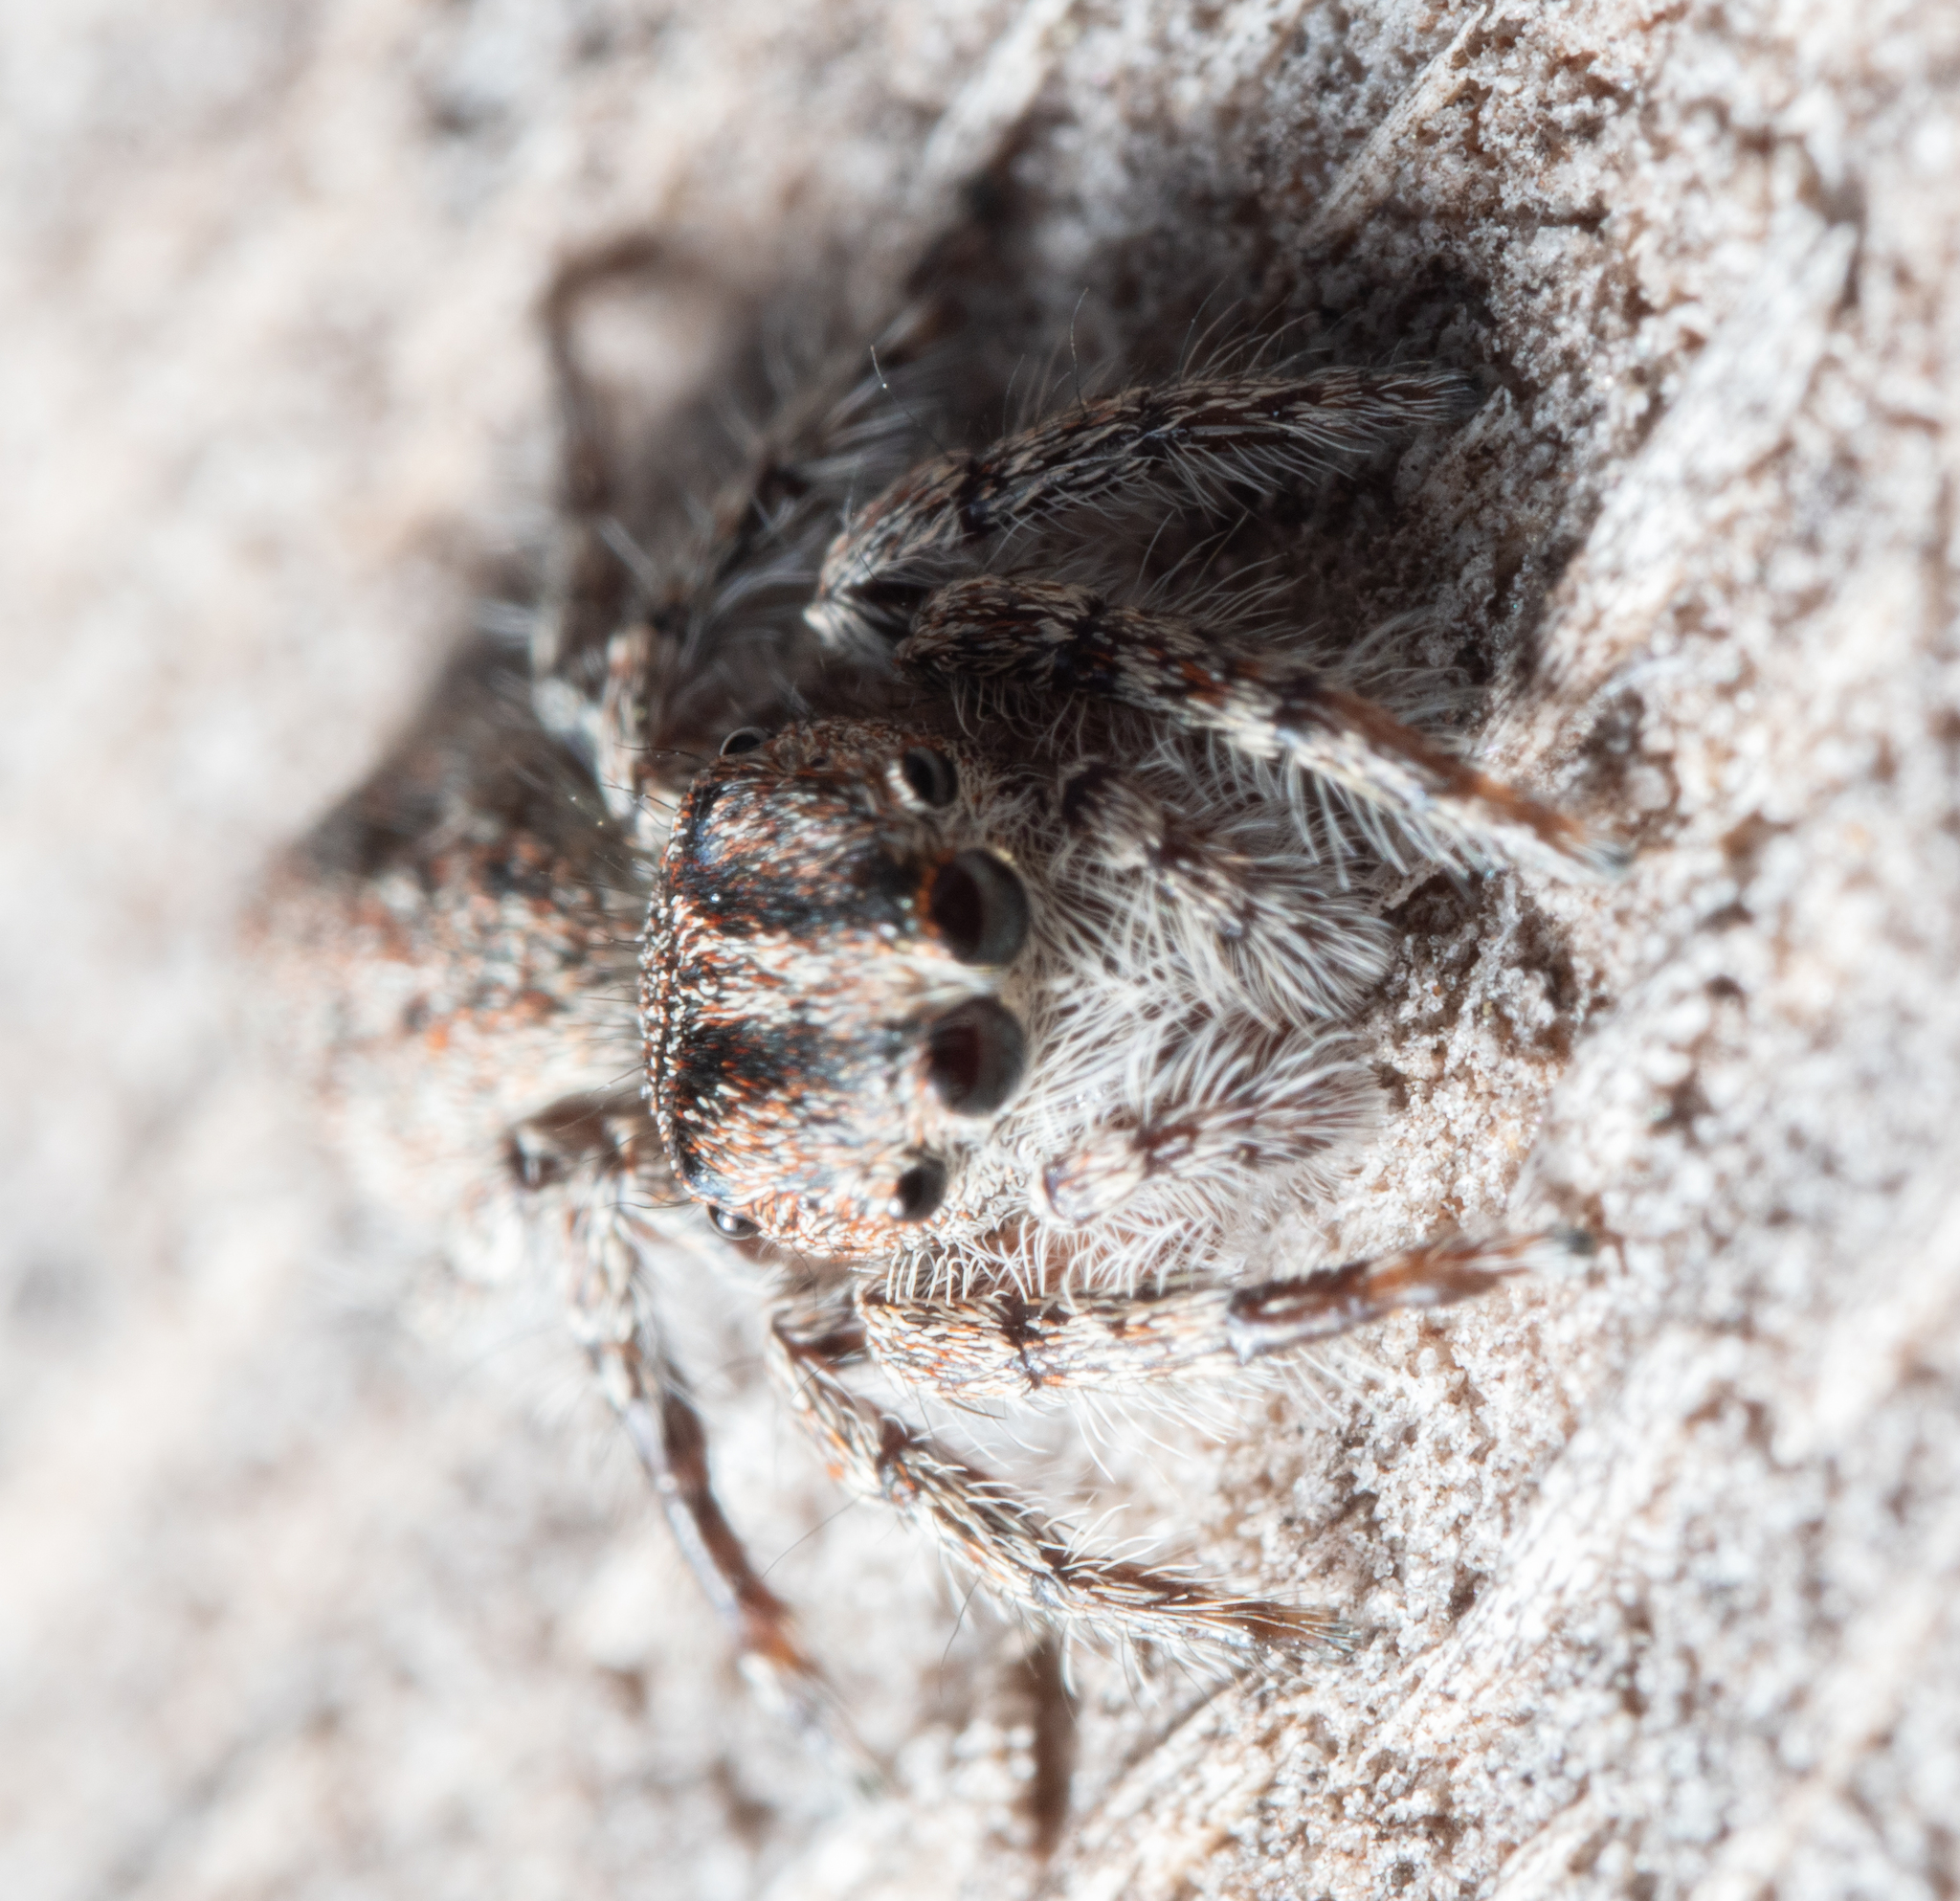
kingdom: Animalia
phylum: Arthropoda
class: Arachnida
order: Araneae
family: Salticidae
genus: Cytaea
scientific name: Cytaea aspera
